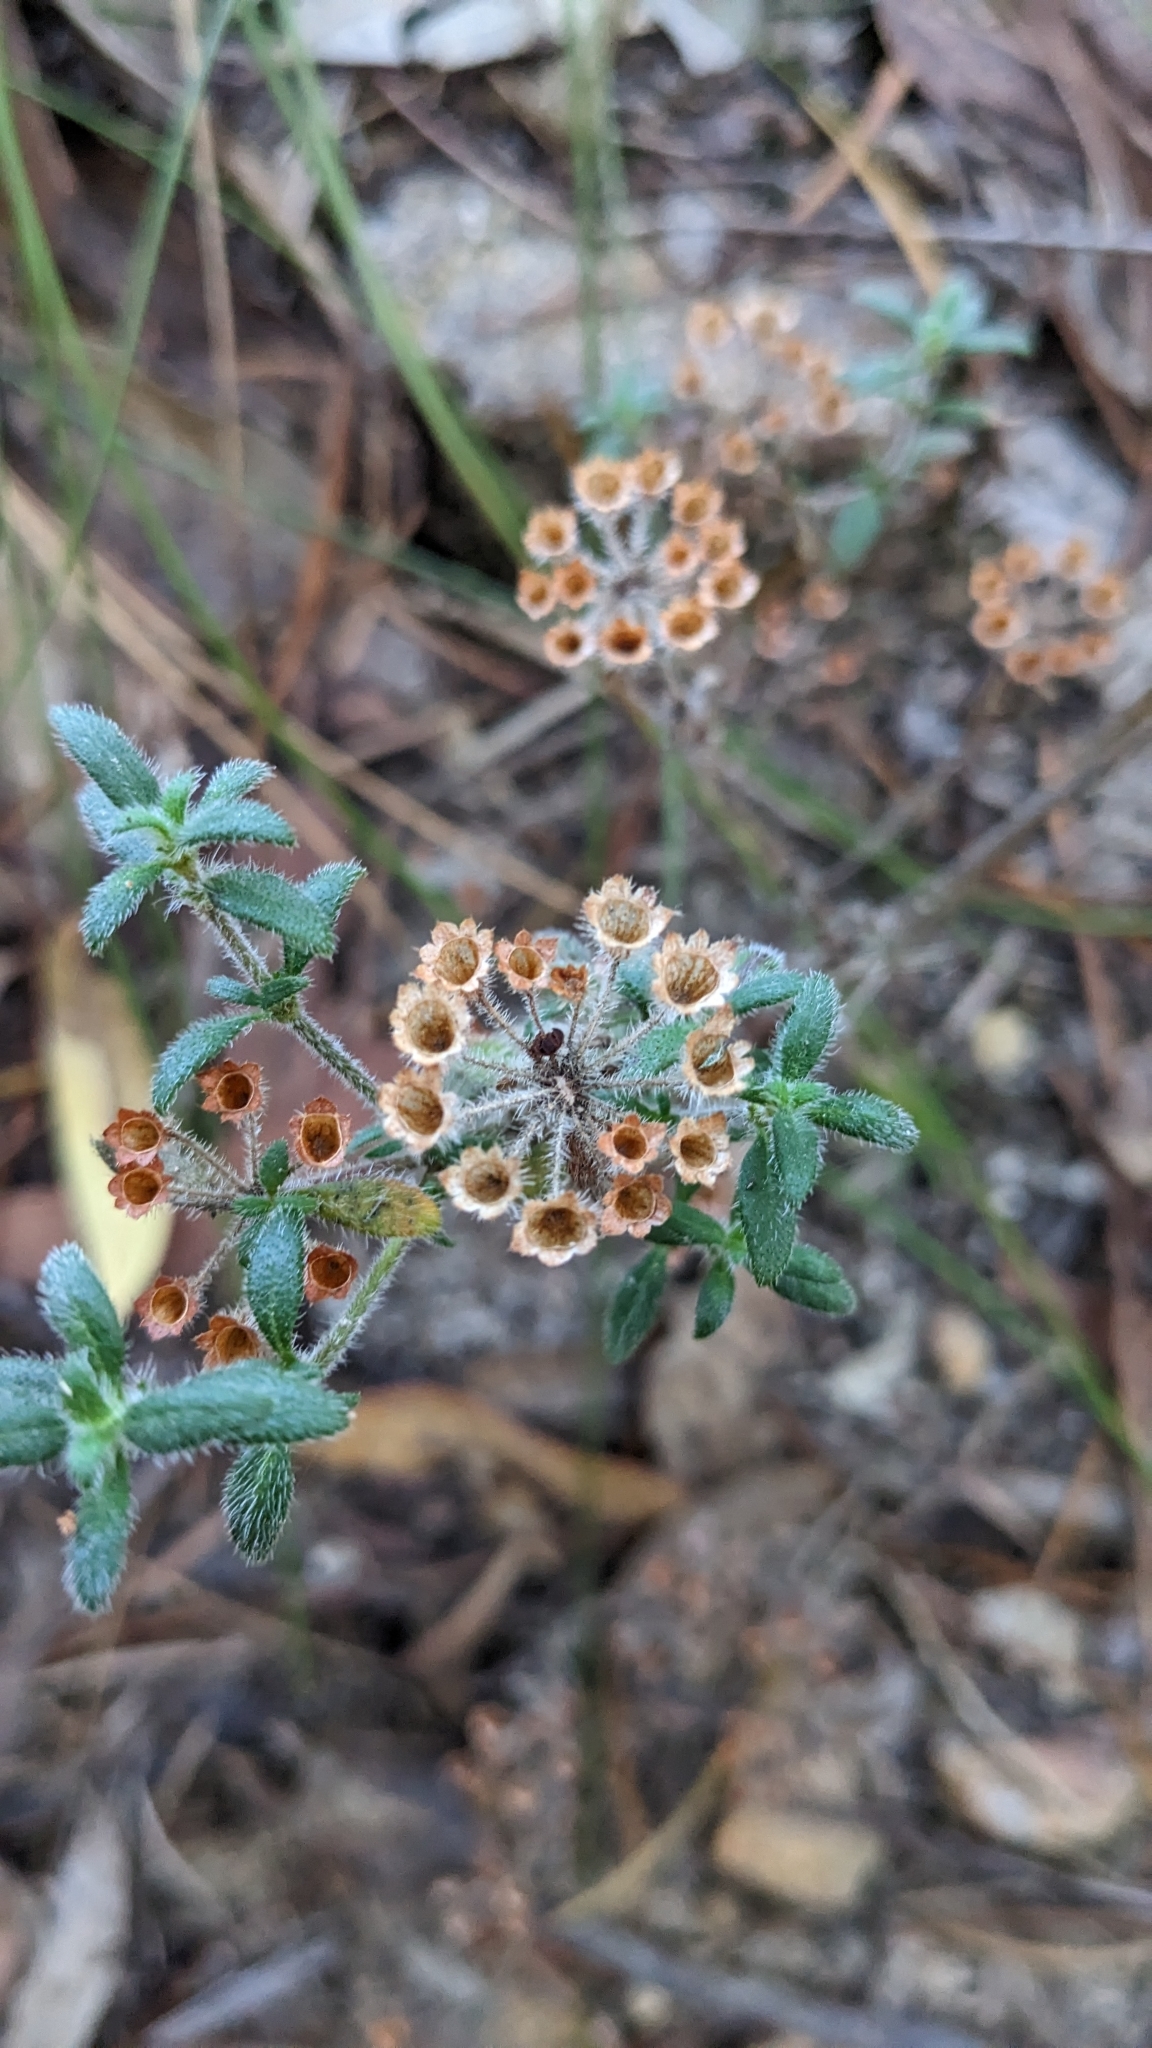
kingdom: Plantae
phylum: Tracheophyta
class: Magnoliopsida
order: Gentianales
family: Rubiaceae
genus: Pomax
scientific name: Pomax umbellata
